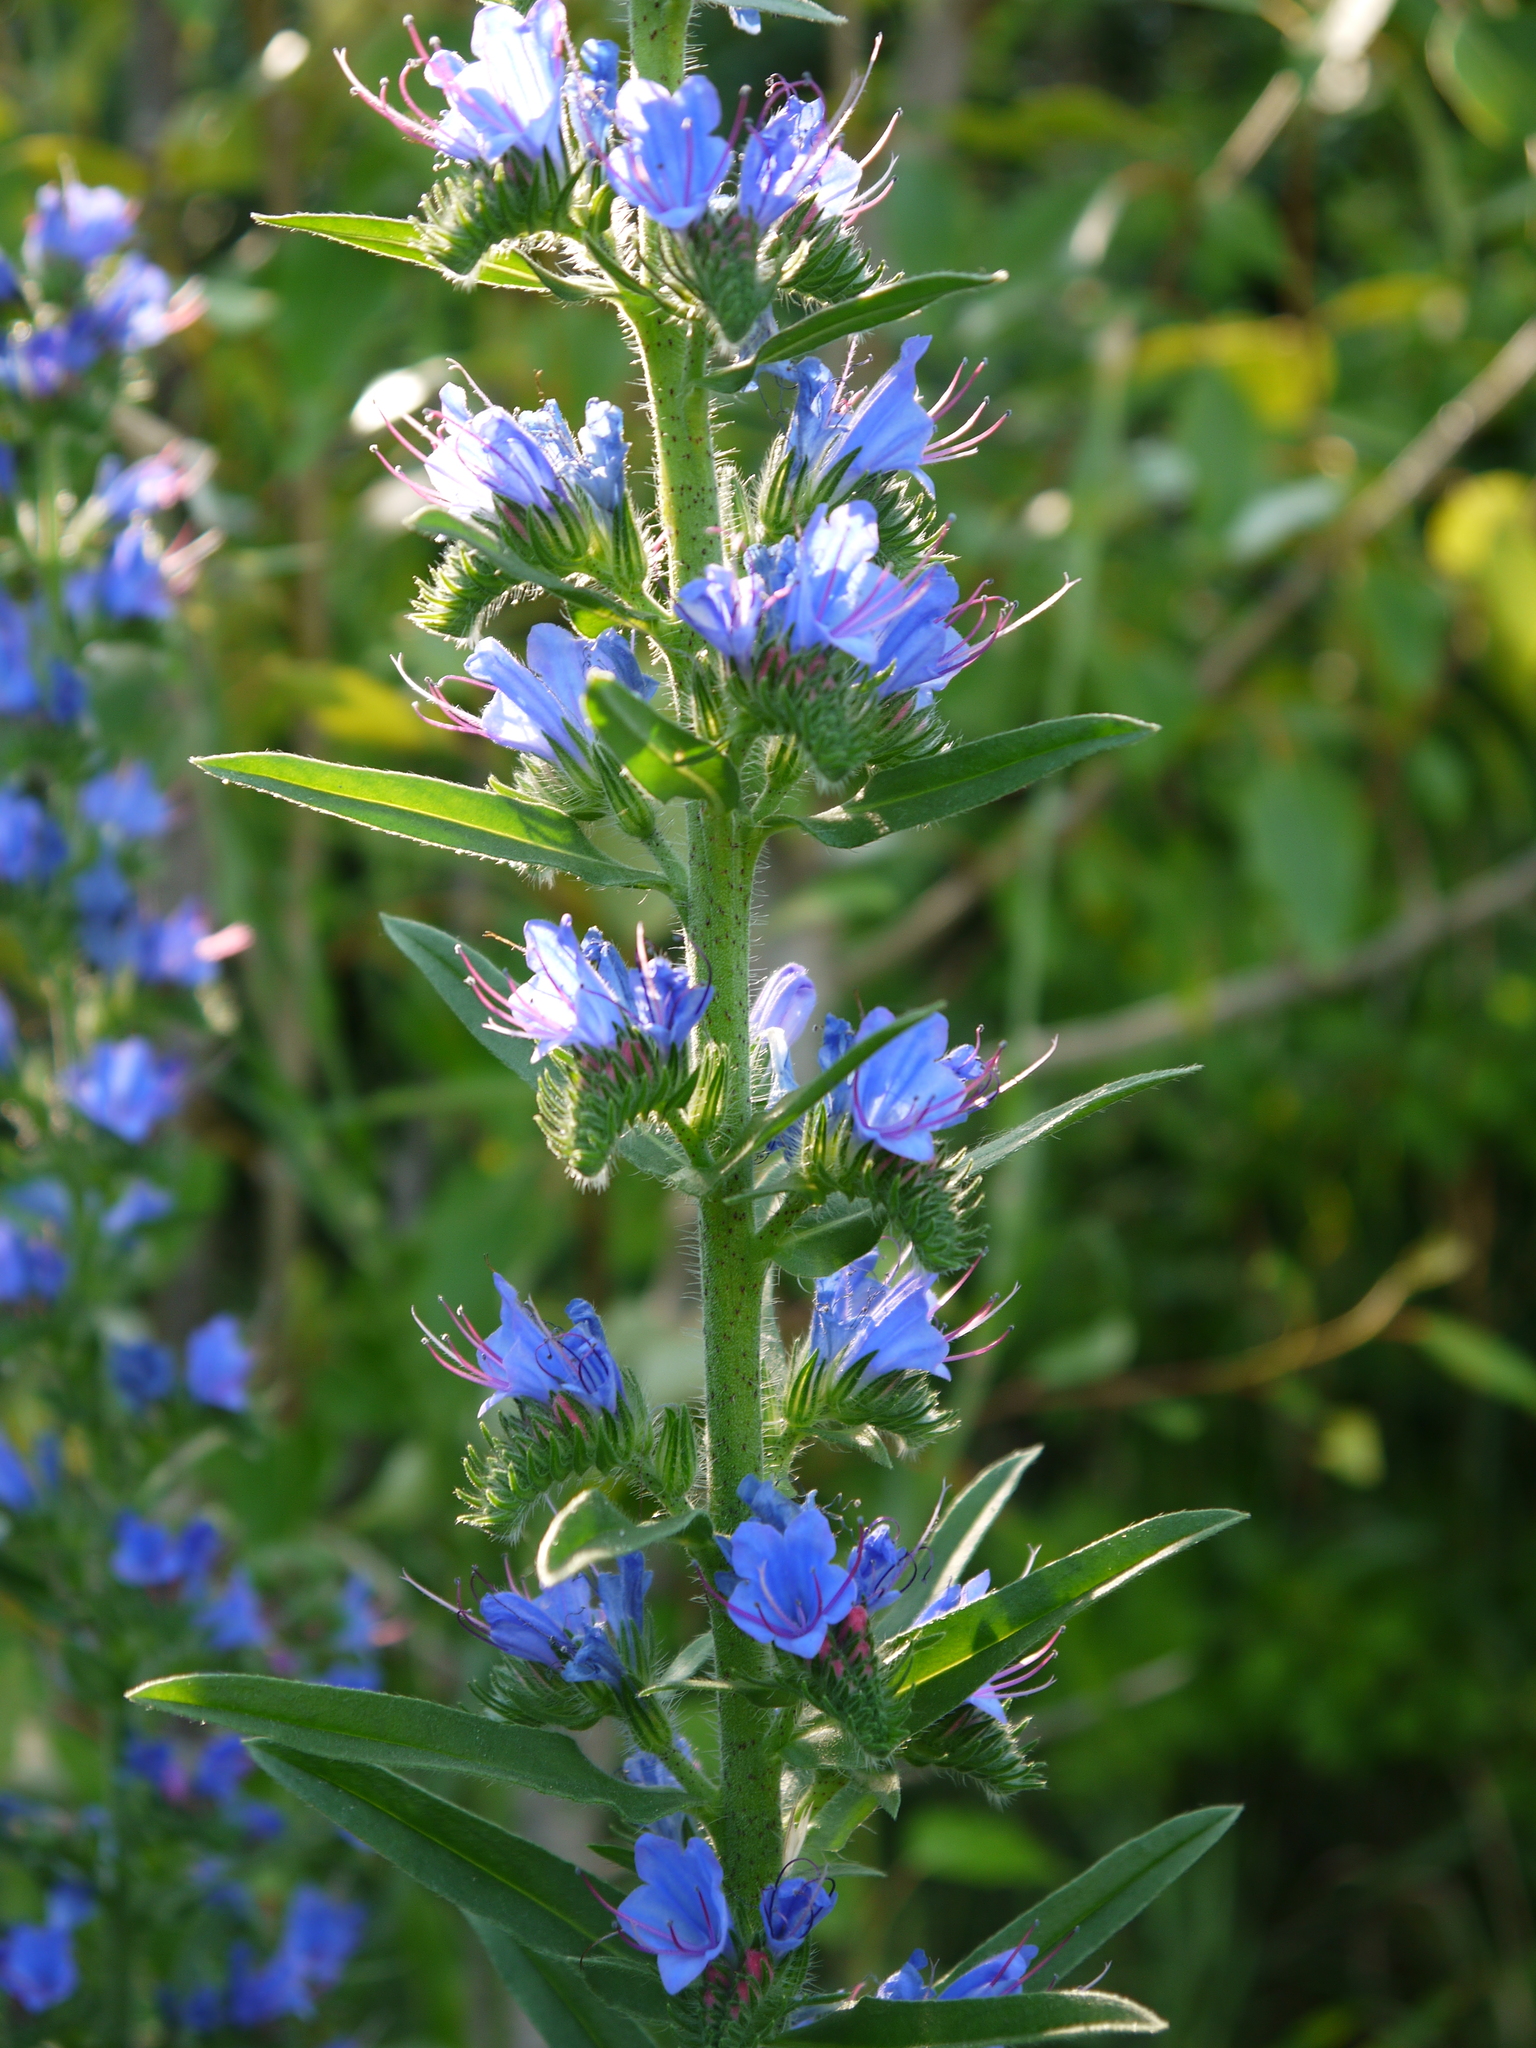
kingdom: Plantae
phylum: Tracheophyta
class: Magnoliopsida
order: Boraginales
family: Boraginaceae
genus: Echium
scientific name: Echium vulgare
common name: Common viper's bugloss
